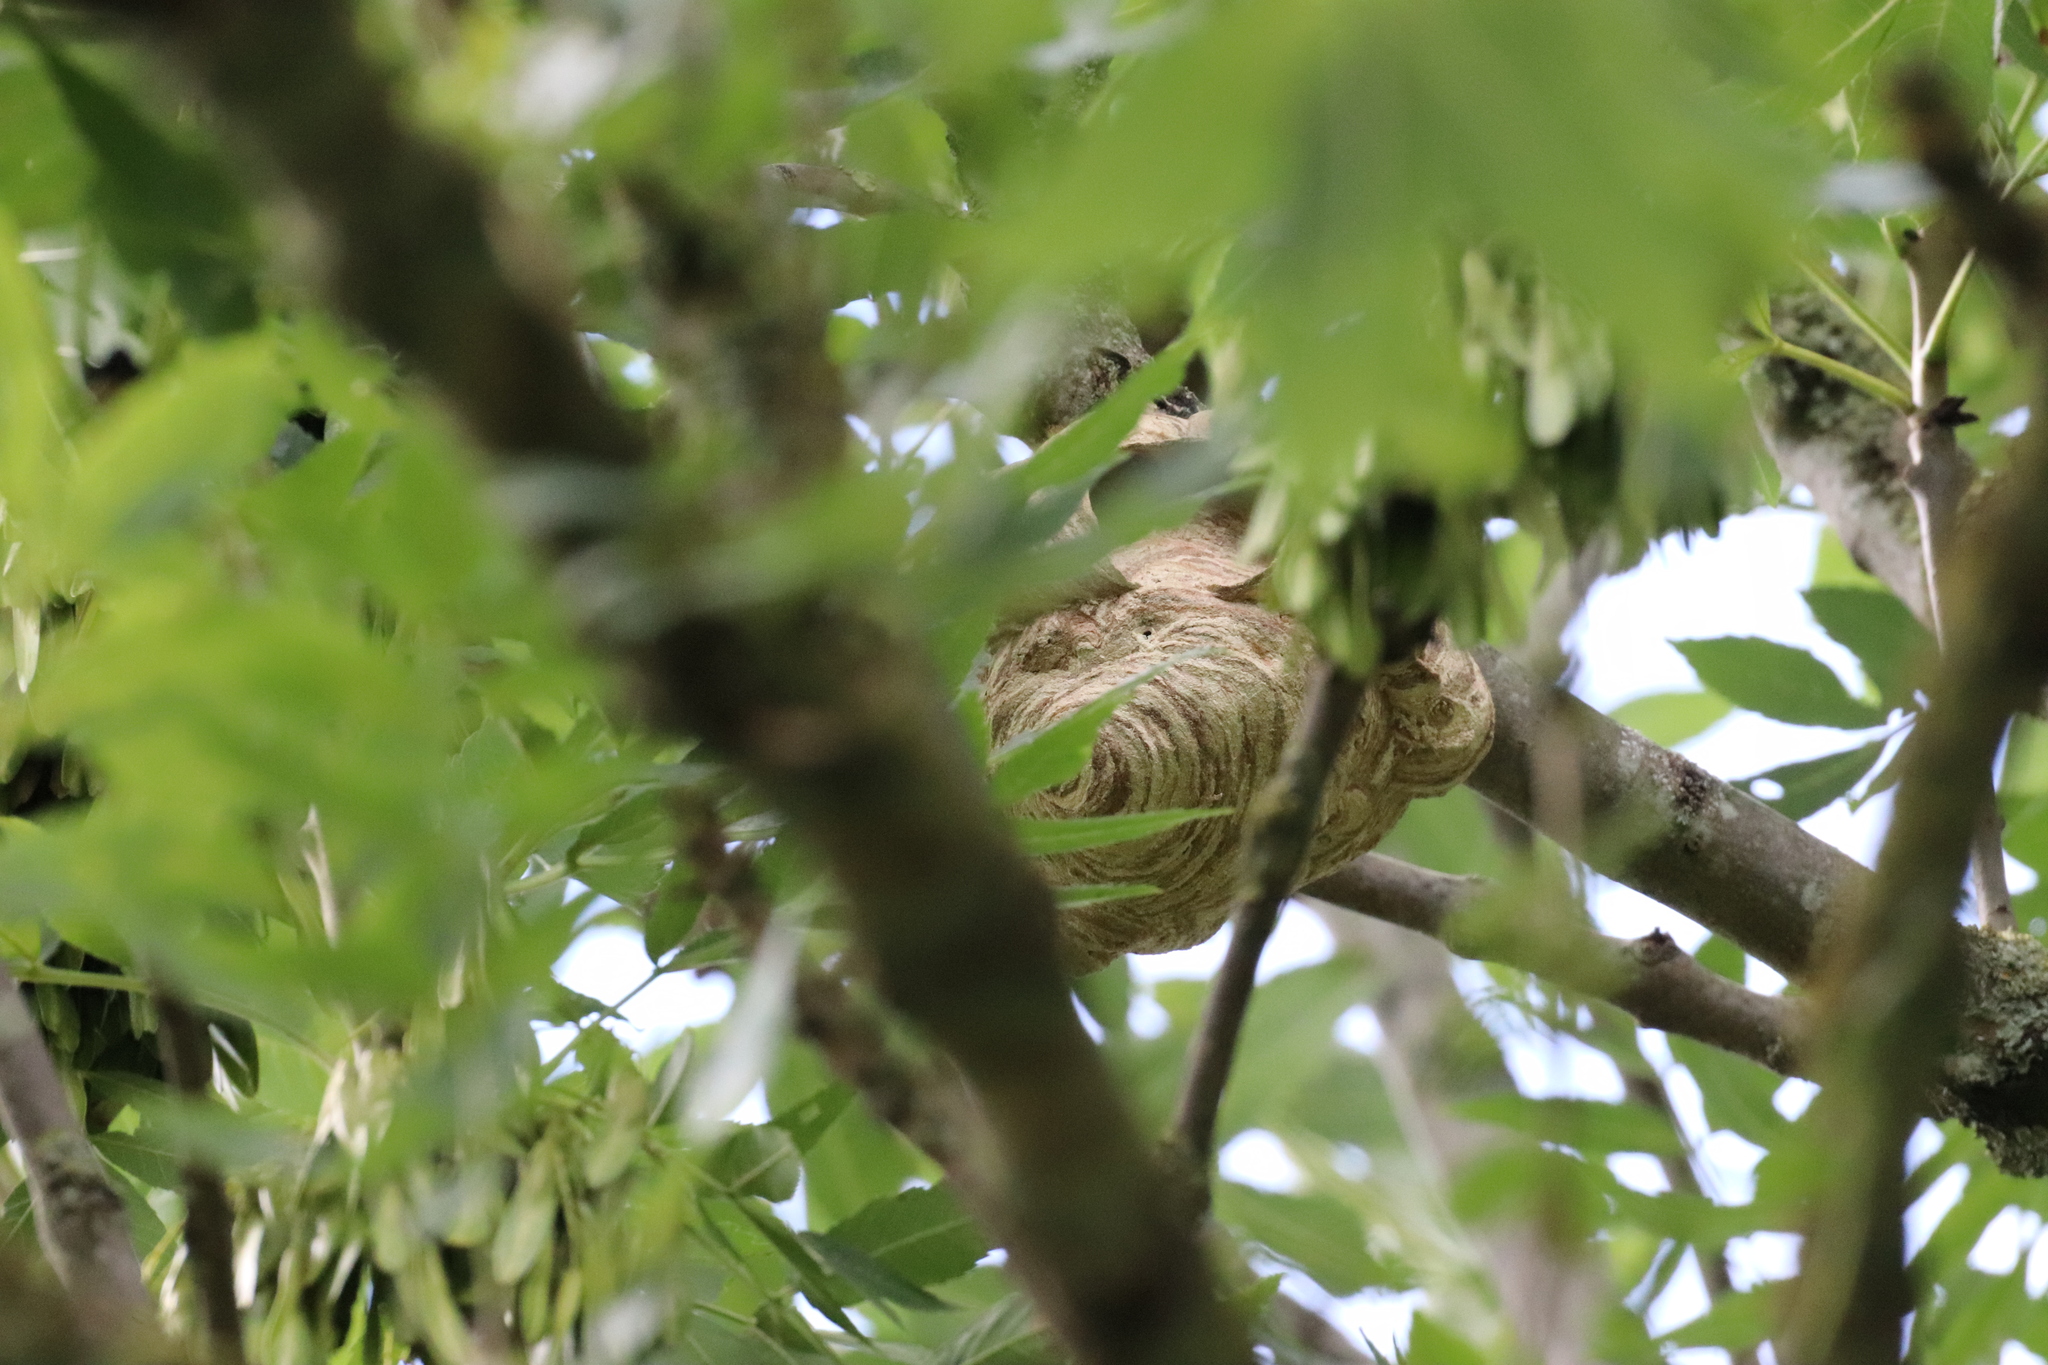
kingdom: Animalia
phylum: Arthropoda
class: Insecta
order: Hymenoptera
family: Vespidae
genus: Vespa
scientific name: Vespa velutina
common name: Asian hornet
